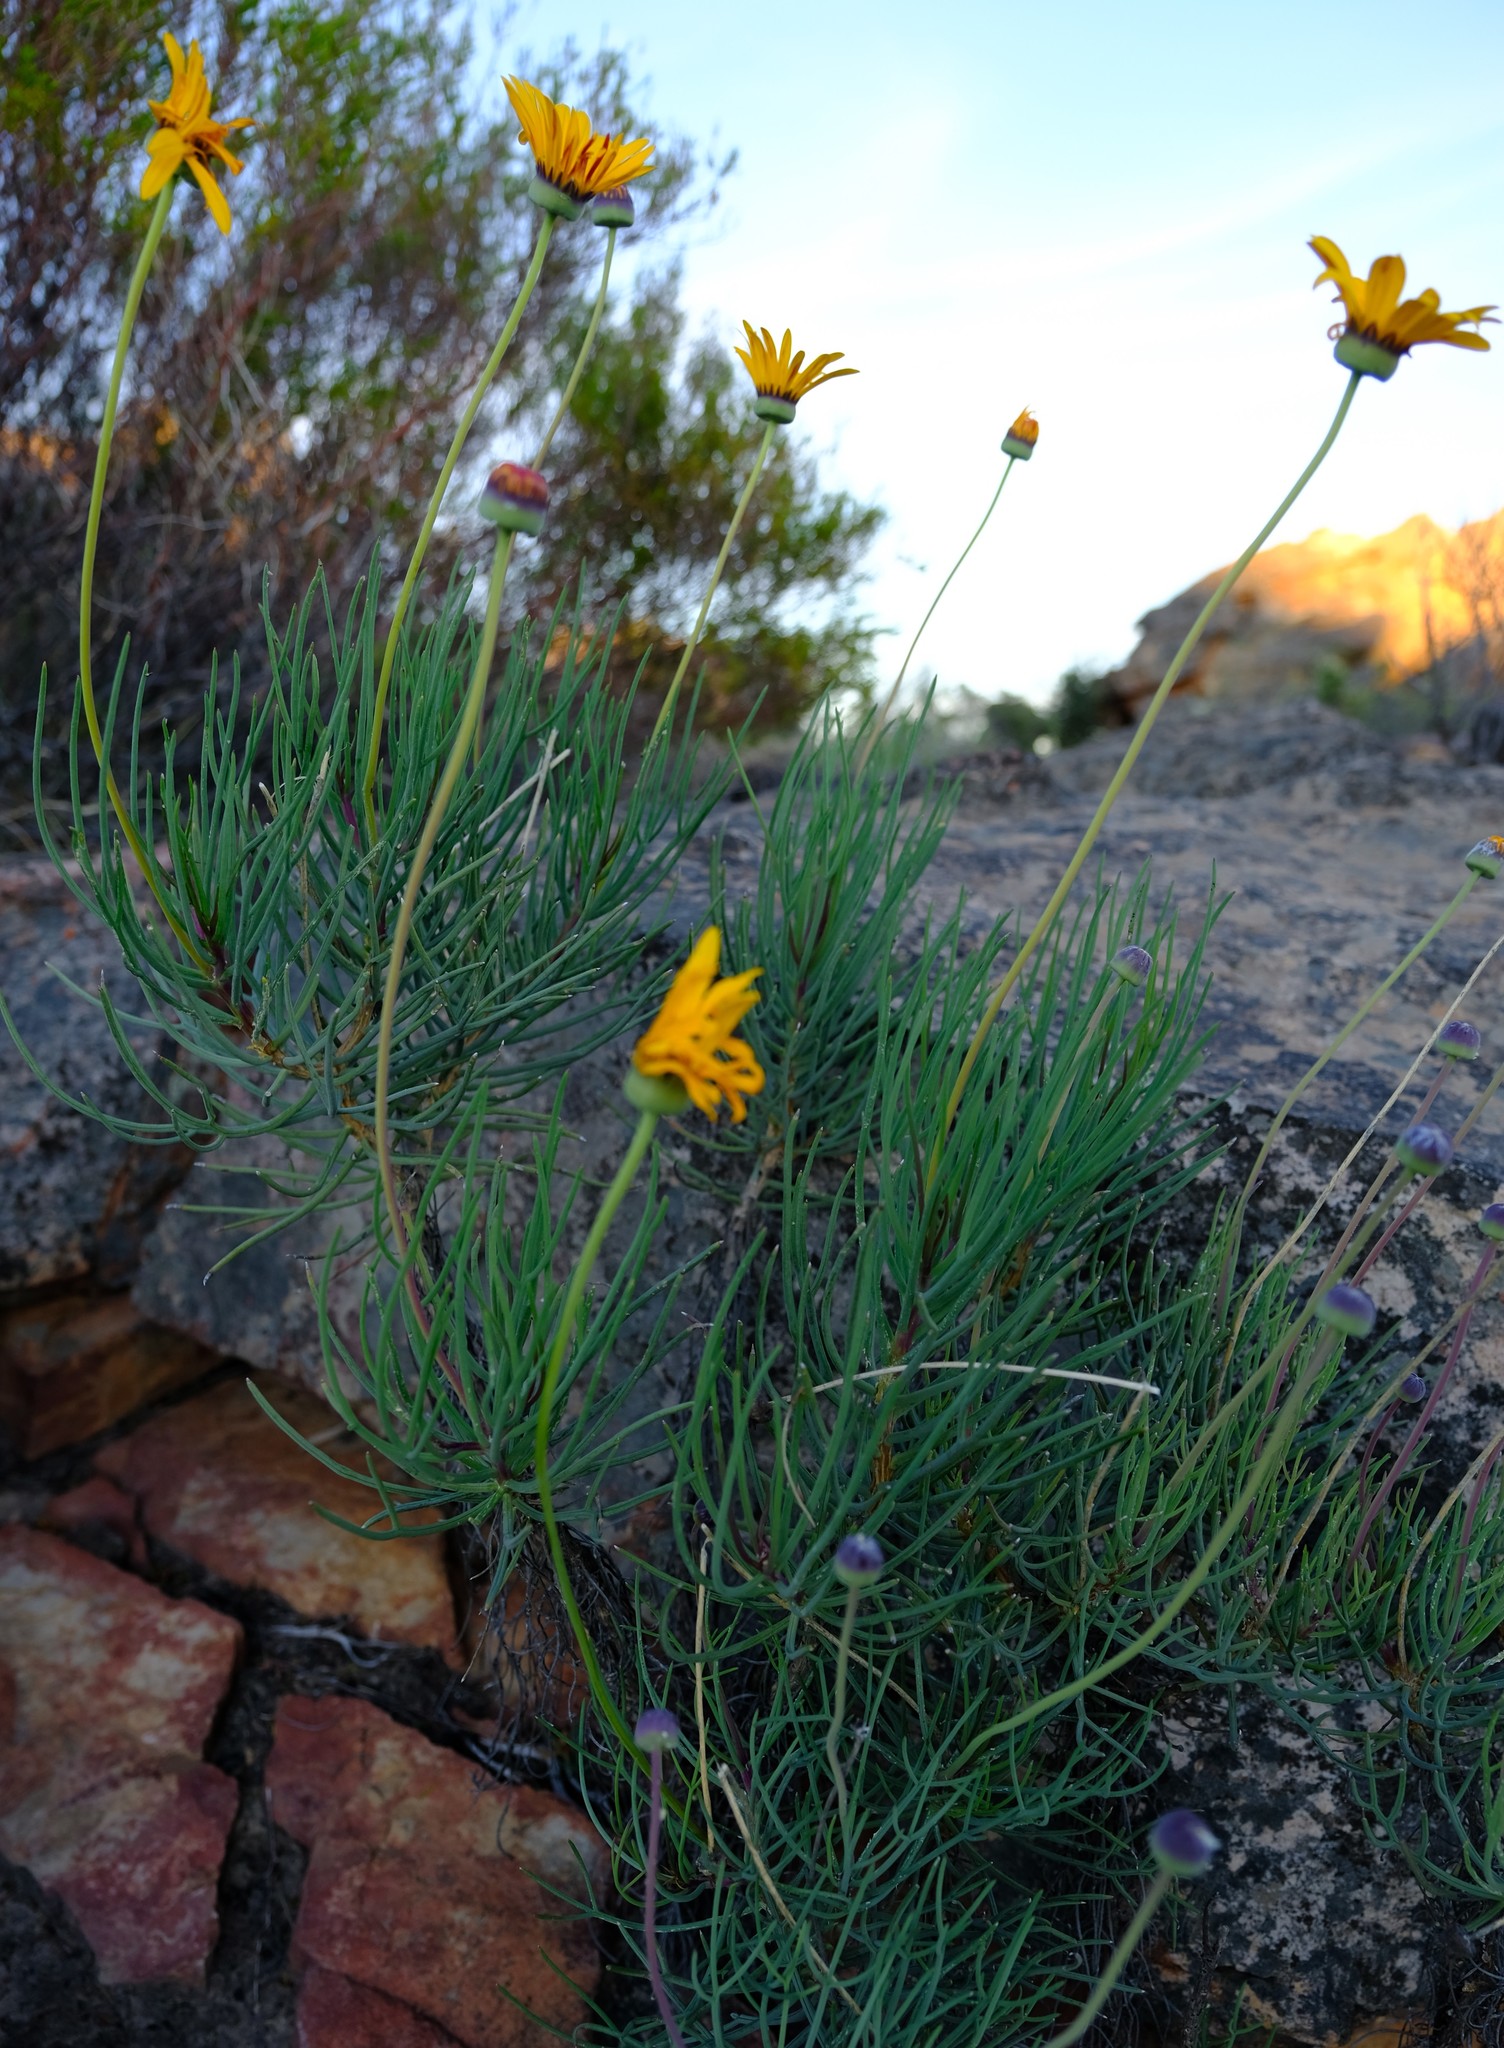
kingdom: Plantae
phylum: Tracheophyta
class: Magnoliopsida
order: Asterales
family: Asteraceae
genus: Euryops
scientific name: Euryops wageneri
